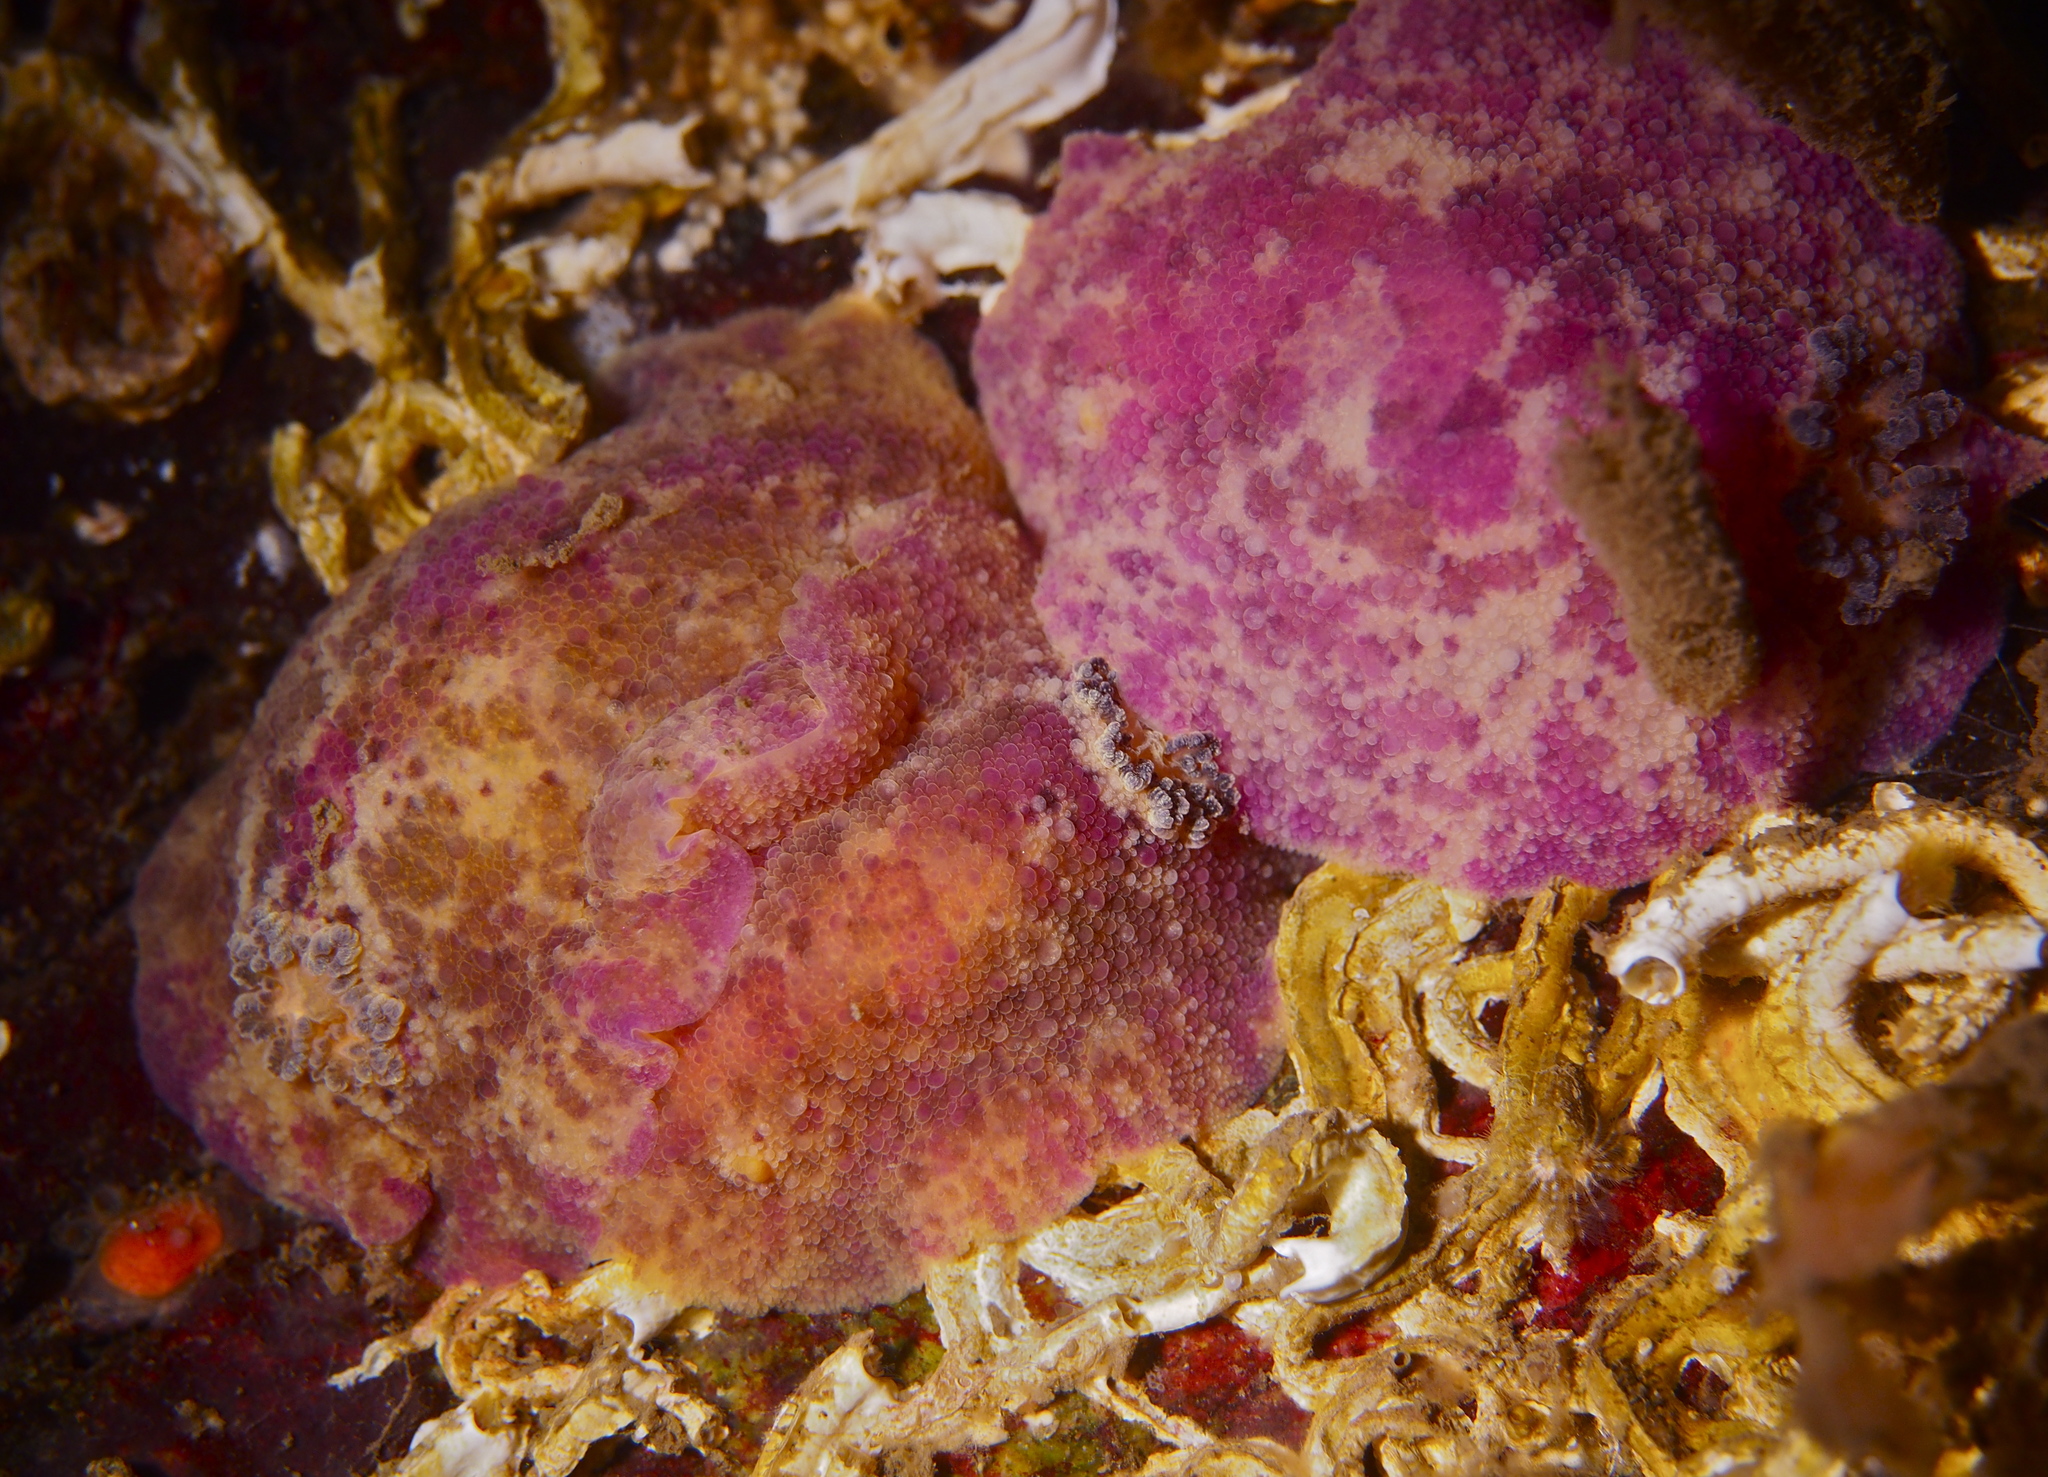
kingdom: Animalia
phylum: Mollusca
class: Gastropoda
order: Nudibranchia
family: Dorididae
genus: Doris
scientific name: Doris pseudoargus
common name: Sea lemon
